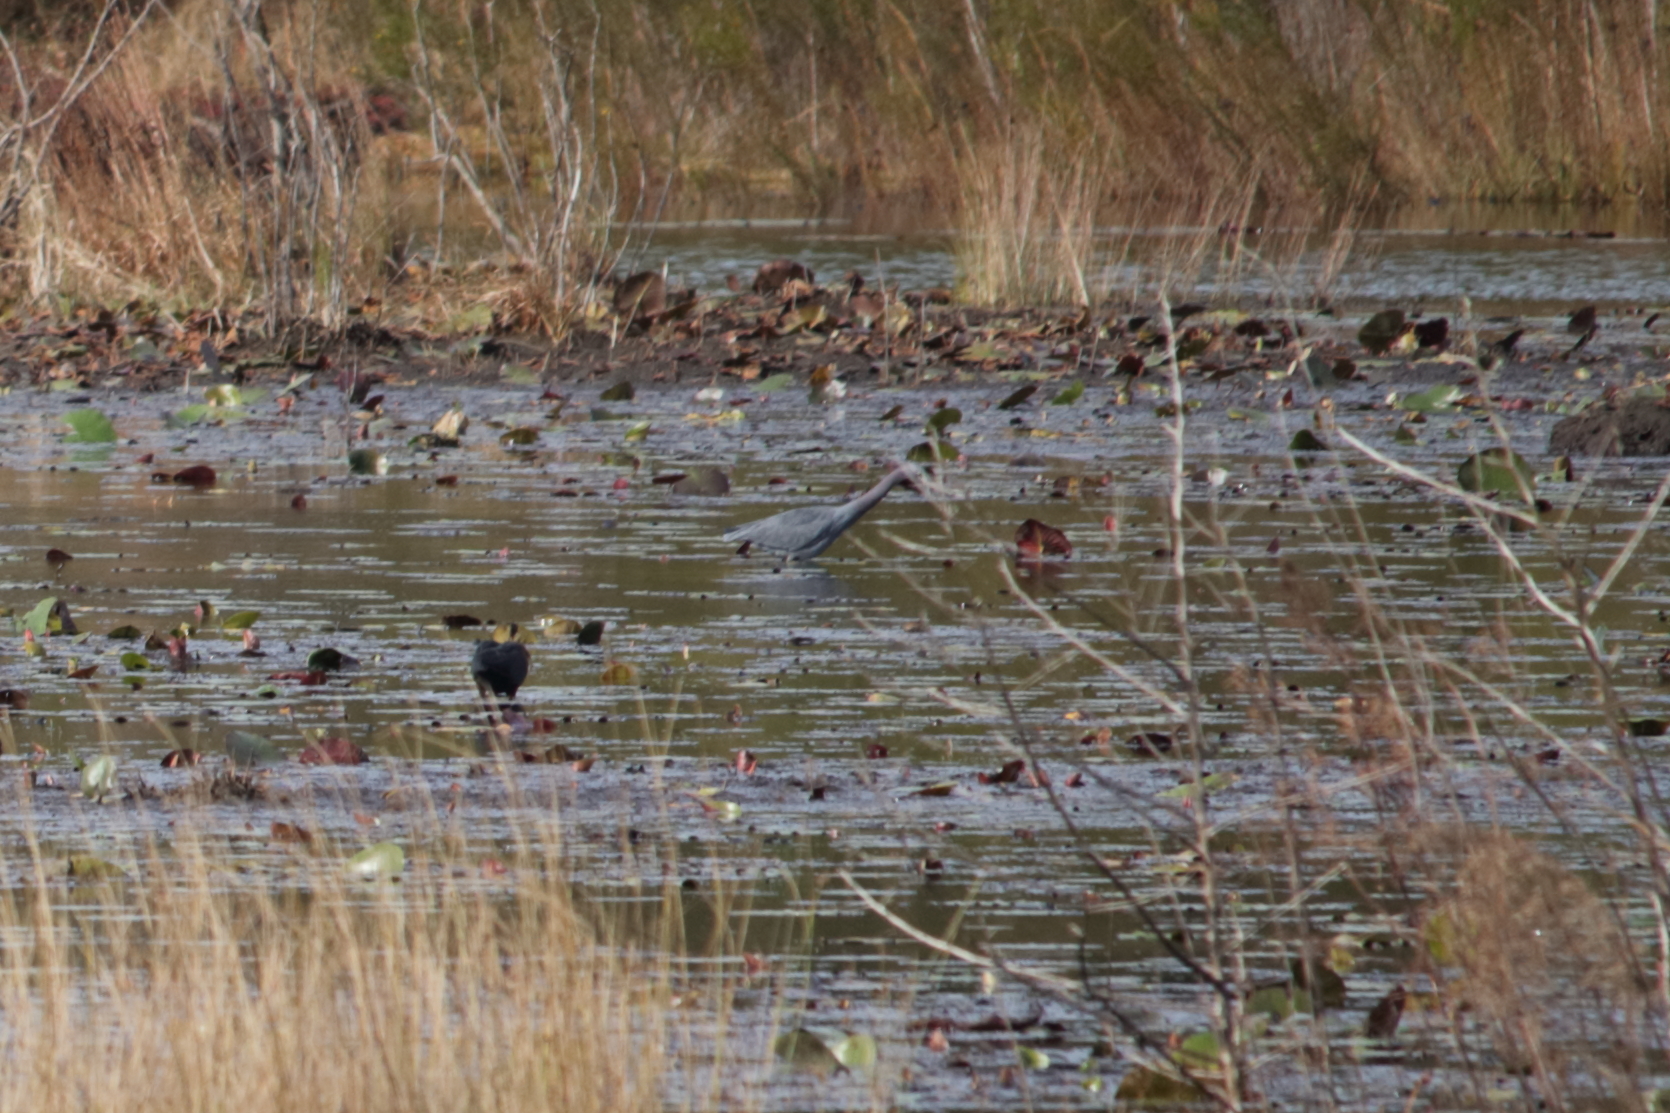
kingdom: Animalia
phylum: Chordata
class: Aves
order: Pelecaniformes
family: Ardeidae
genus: Egretta
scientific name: Egretta caerulea
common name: Little blue heron
